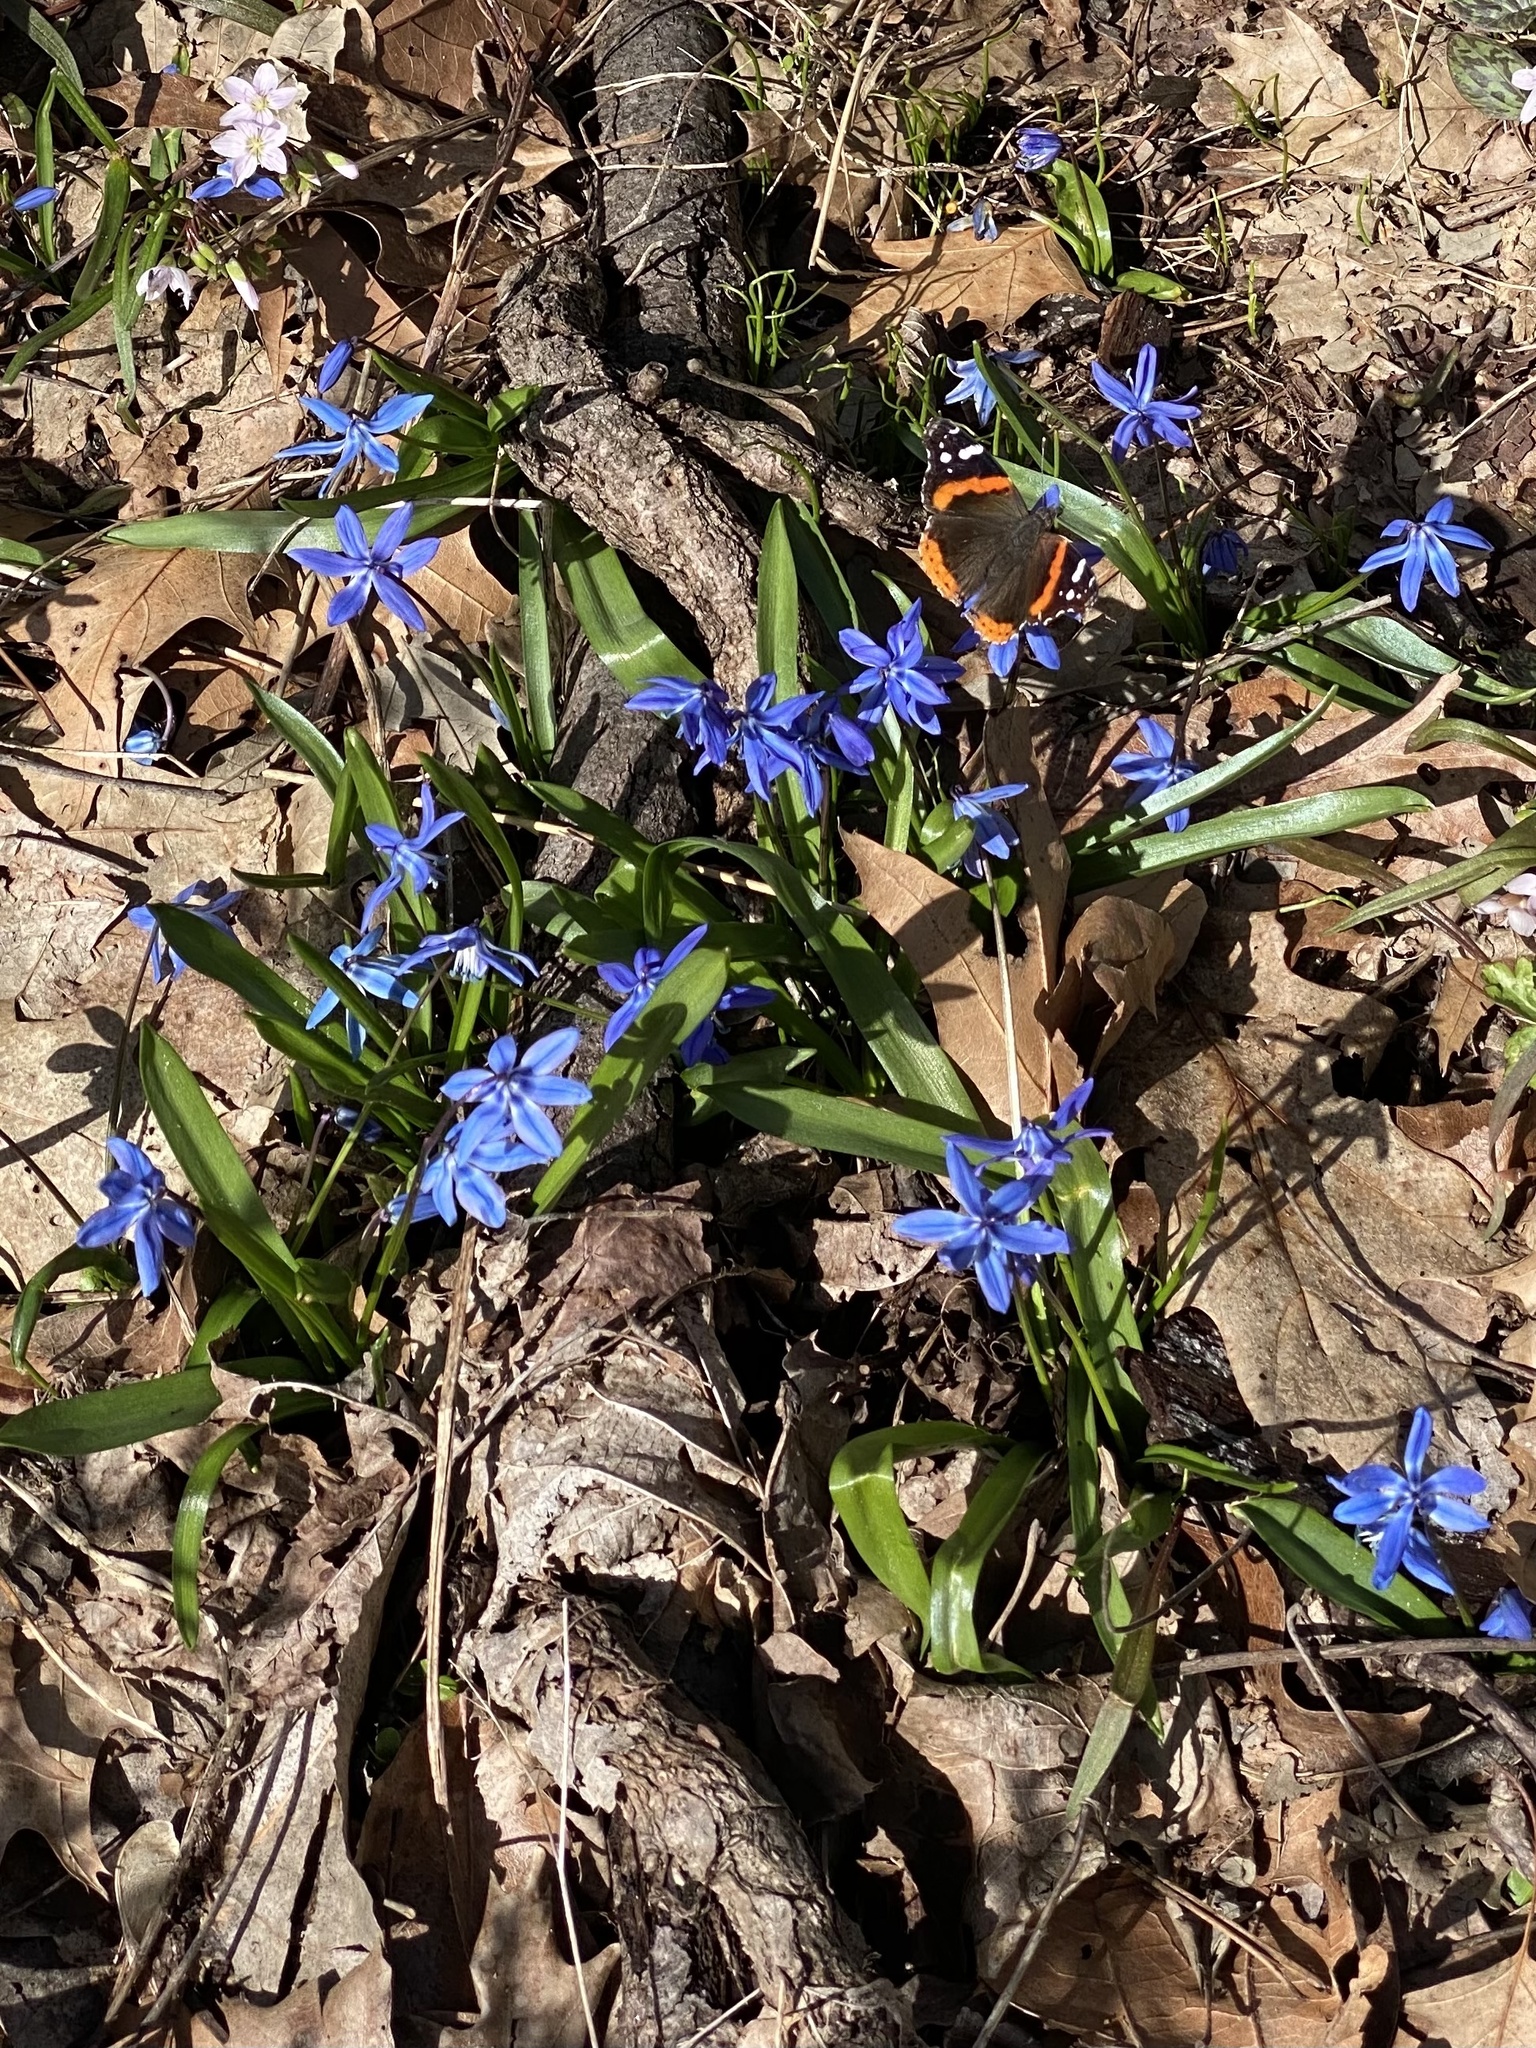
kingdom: Plantae
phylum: Tracheophyta
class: Liliopsida
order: Asparagales
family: Asparagaceae
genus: Scilla
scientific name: Scilla siberica
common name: Siberian squill
